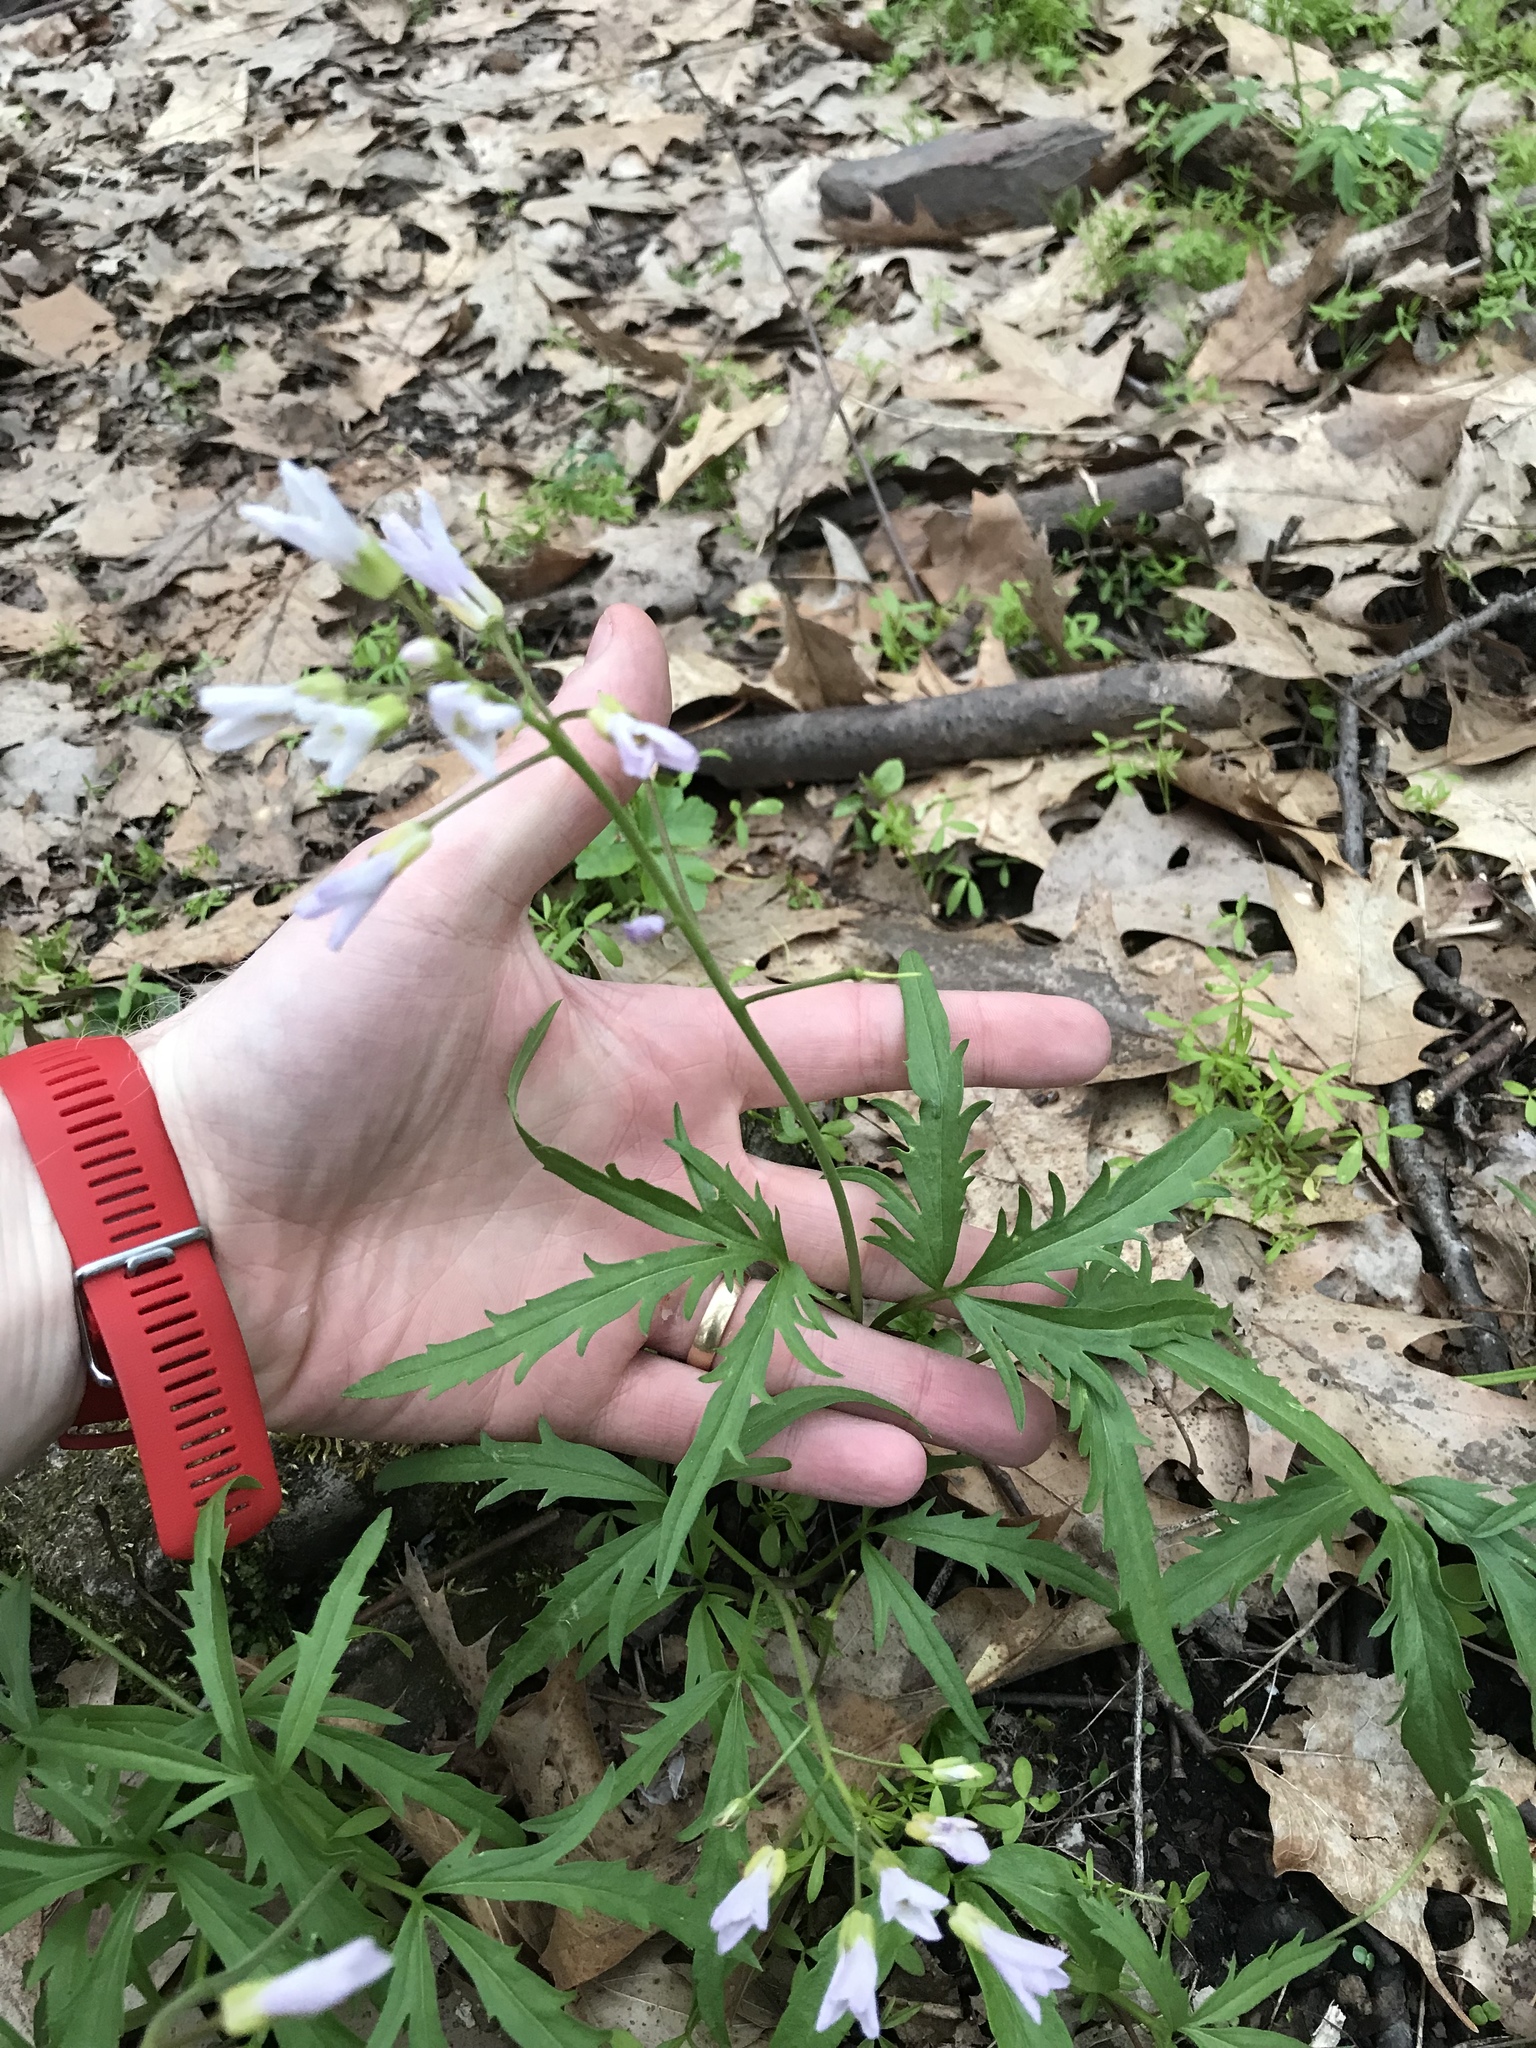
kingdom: Plantae
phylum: Tracheophyta
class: Magnoliopsida
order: Brassicales
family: Brassicaceae
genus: Cardamine
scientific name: Cardamine concatenata
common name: Cut-leaf toothcup
